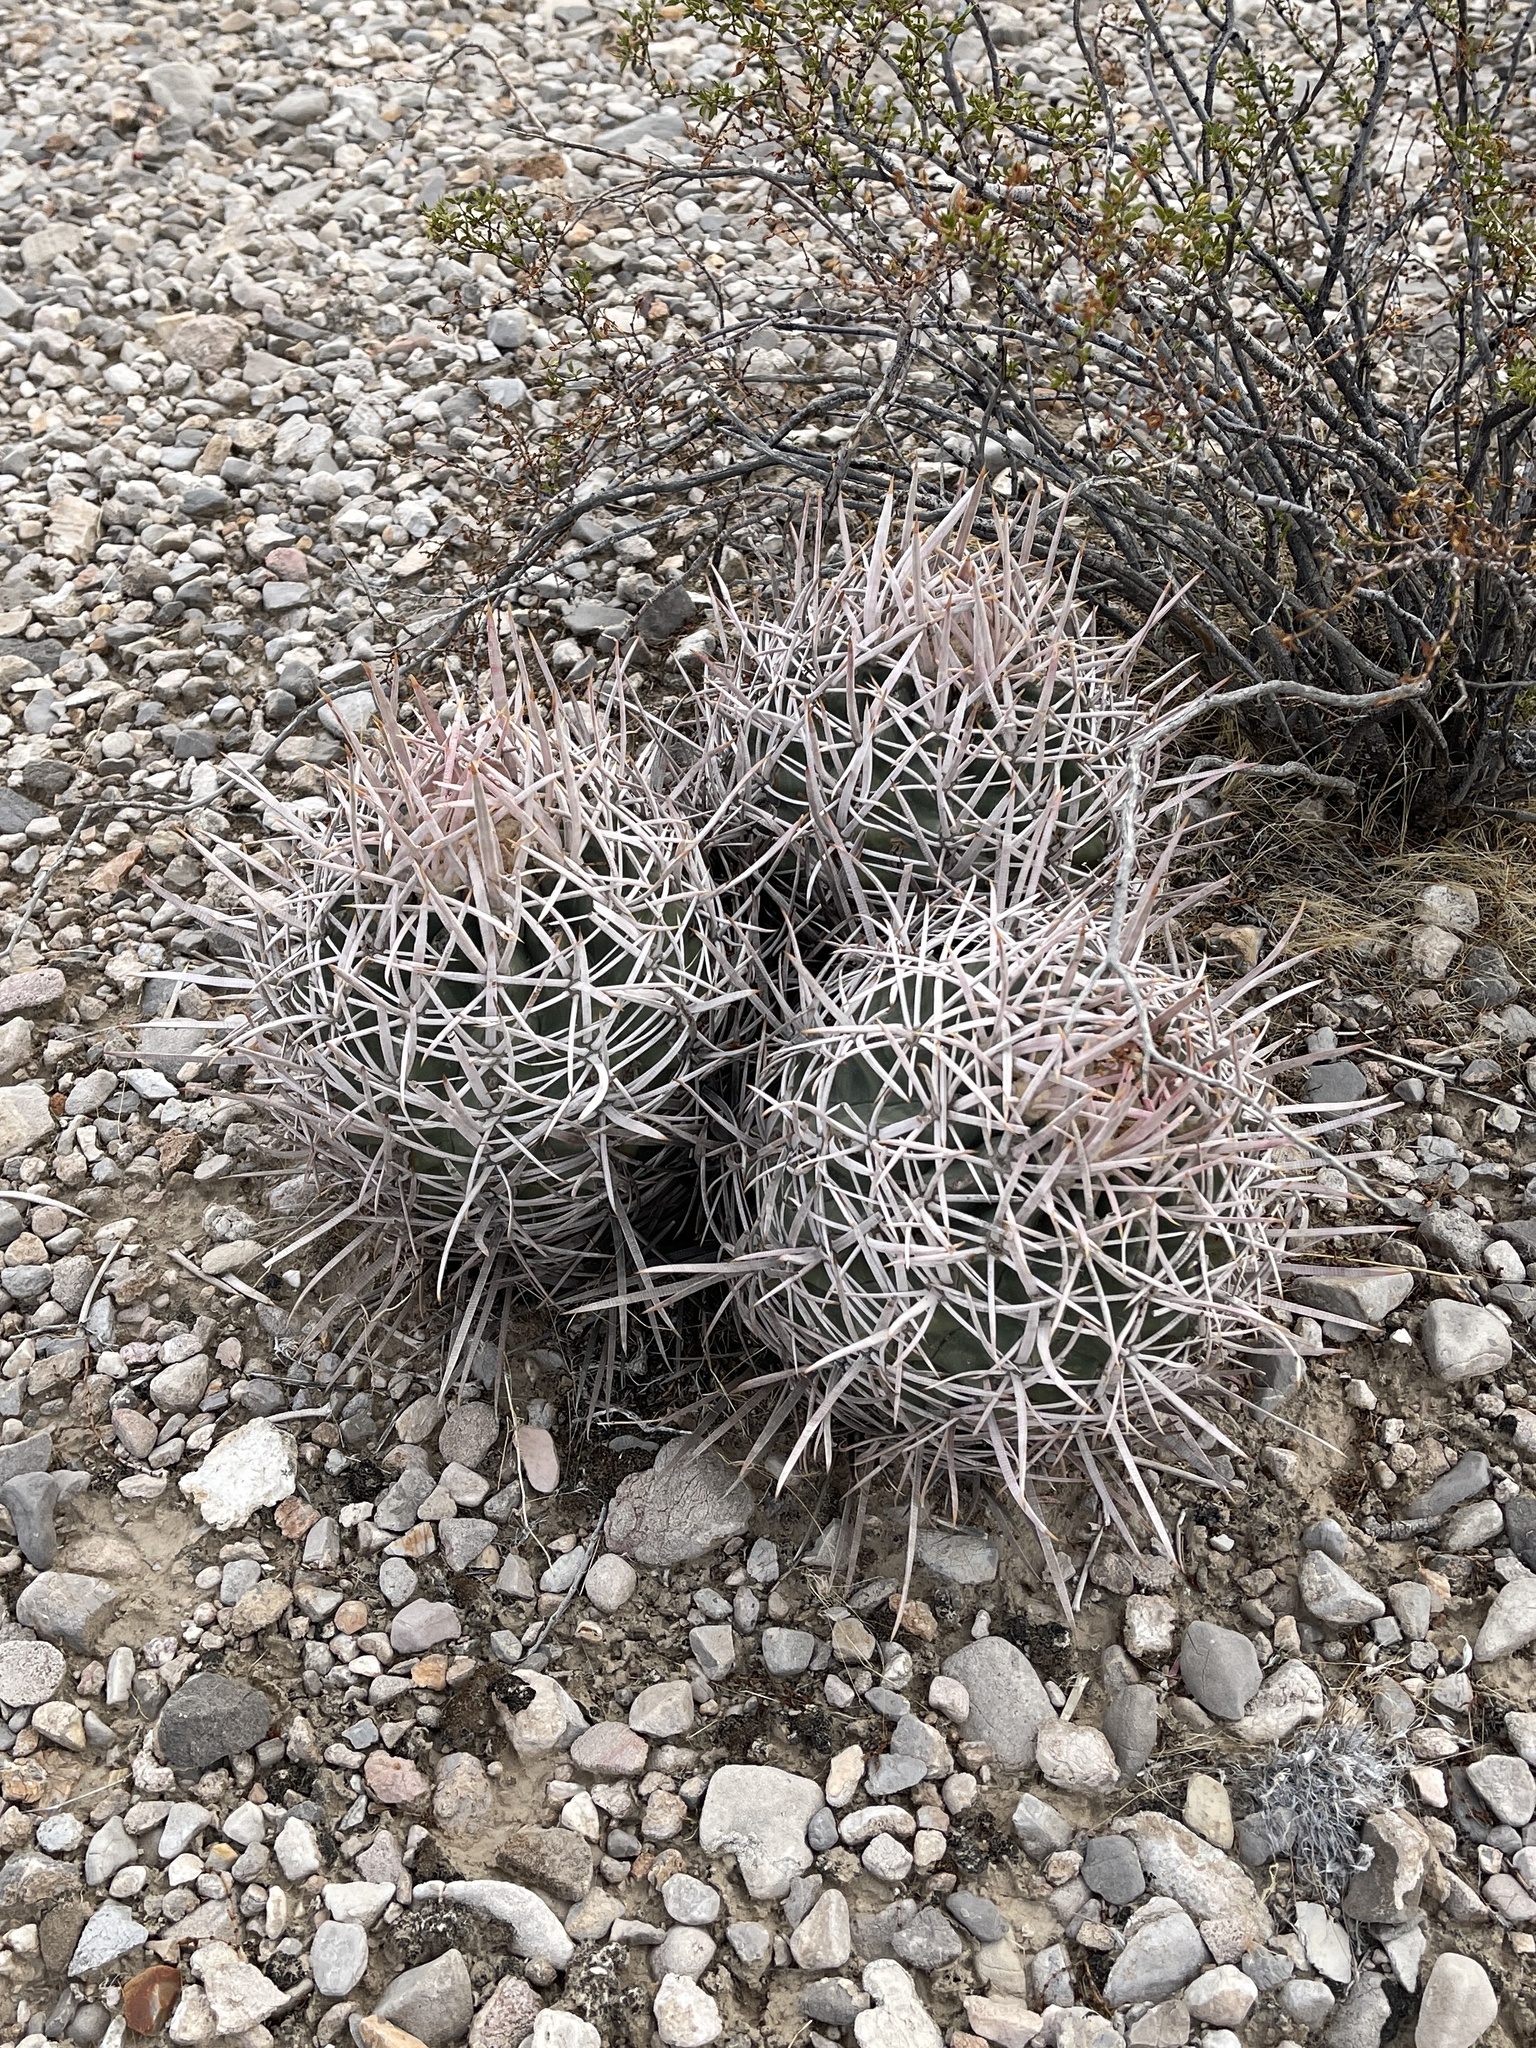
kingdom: Plantae
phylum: Tracheophyta
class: Magnoliopsida
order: Caryophyllales
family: Cactaceae
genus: Echinocactus
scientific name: Echinocactus polycephalus
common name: Cottontop cactus
